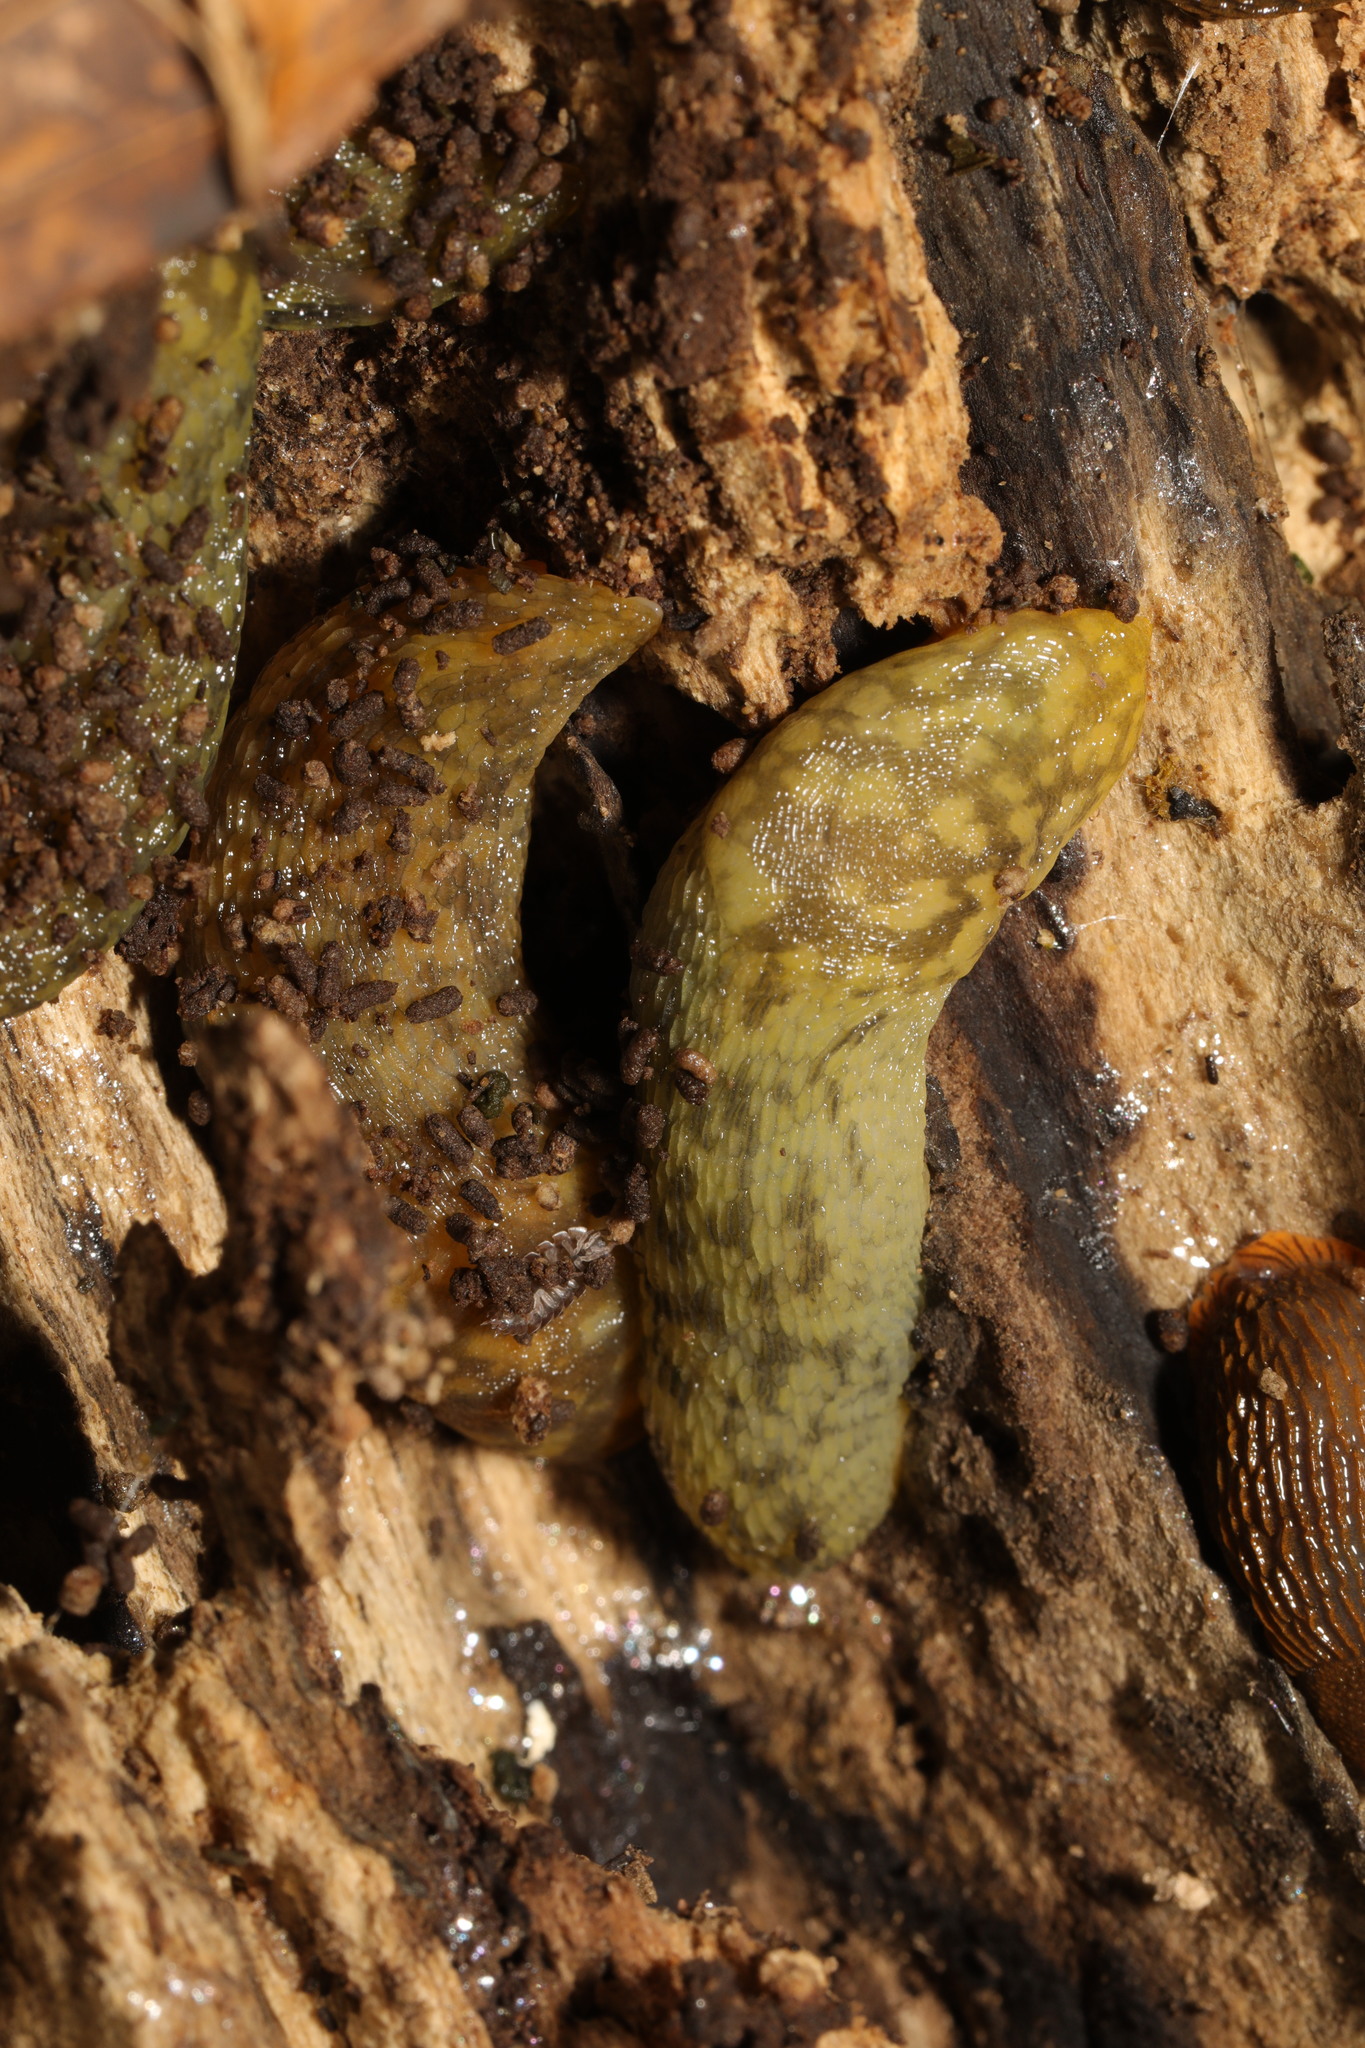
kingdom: Animalia
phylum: Mollusca
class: Gastropoda
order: Stylommatophora
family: Limacidae
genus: Limacus
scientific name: Limacus maculatus
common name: Irish yellow slug
